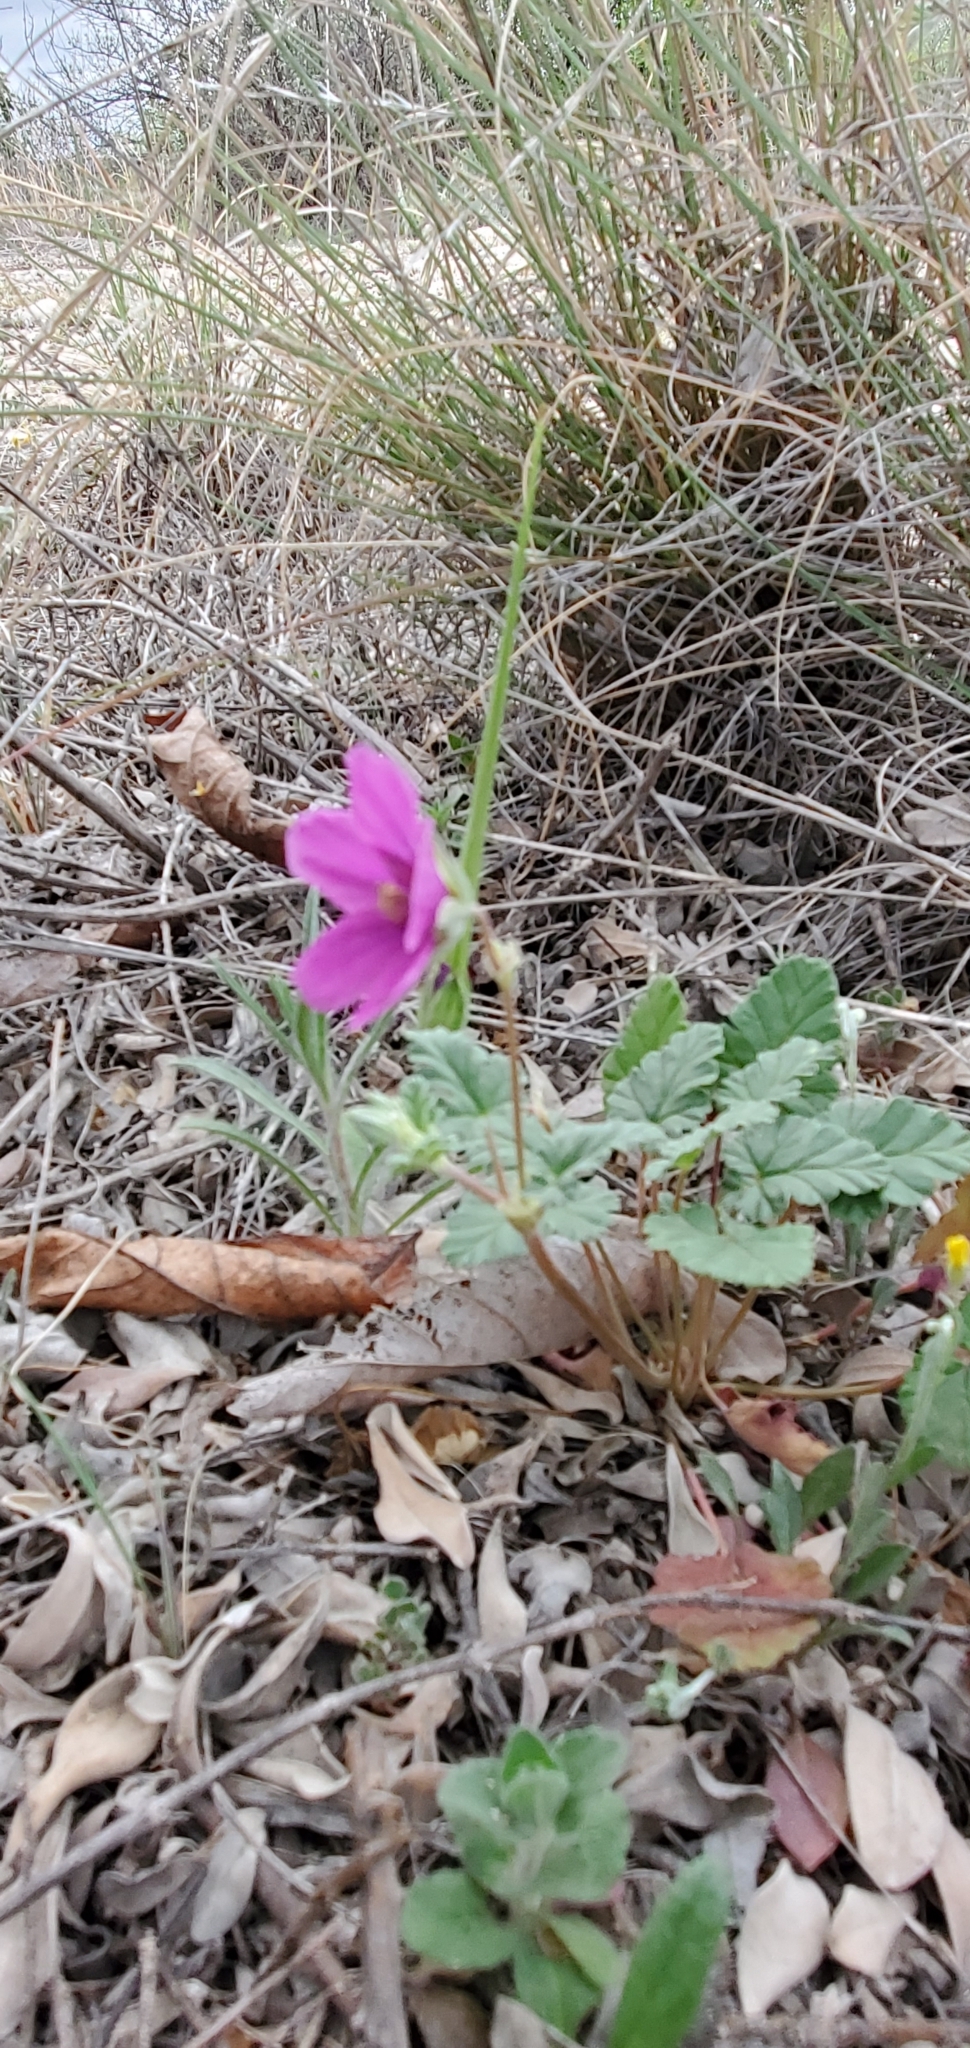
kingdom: Plantae
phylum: Tracheophyta
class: Magnoliopsida
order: Geraniales
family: Geraniaceae
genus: Erodium
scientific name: Erodium texanum
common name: Texas stork's-bill
